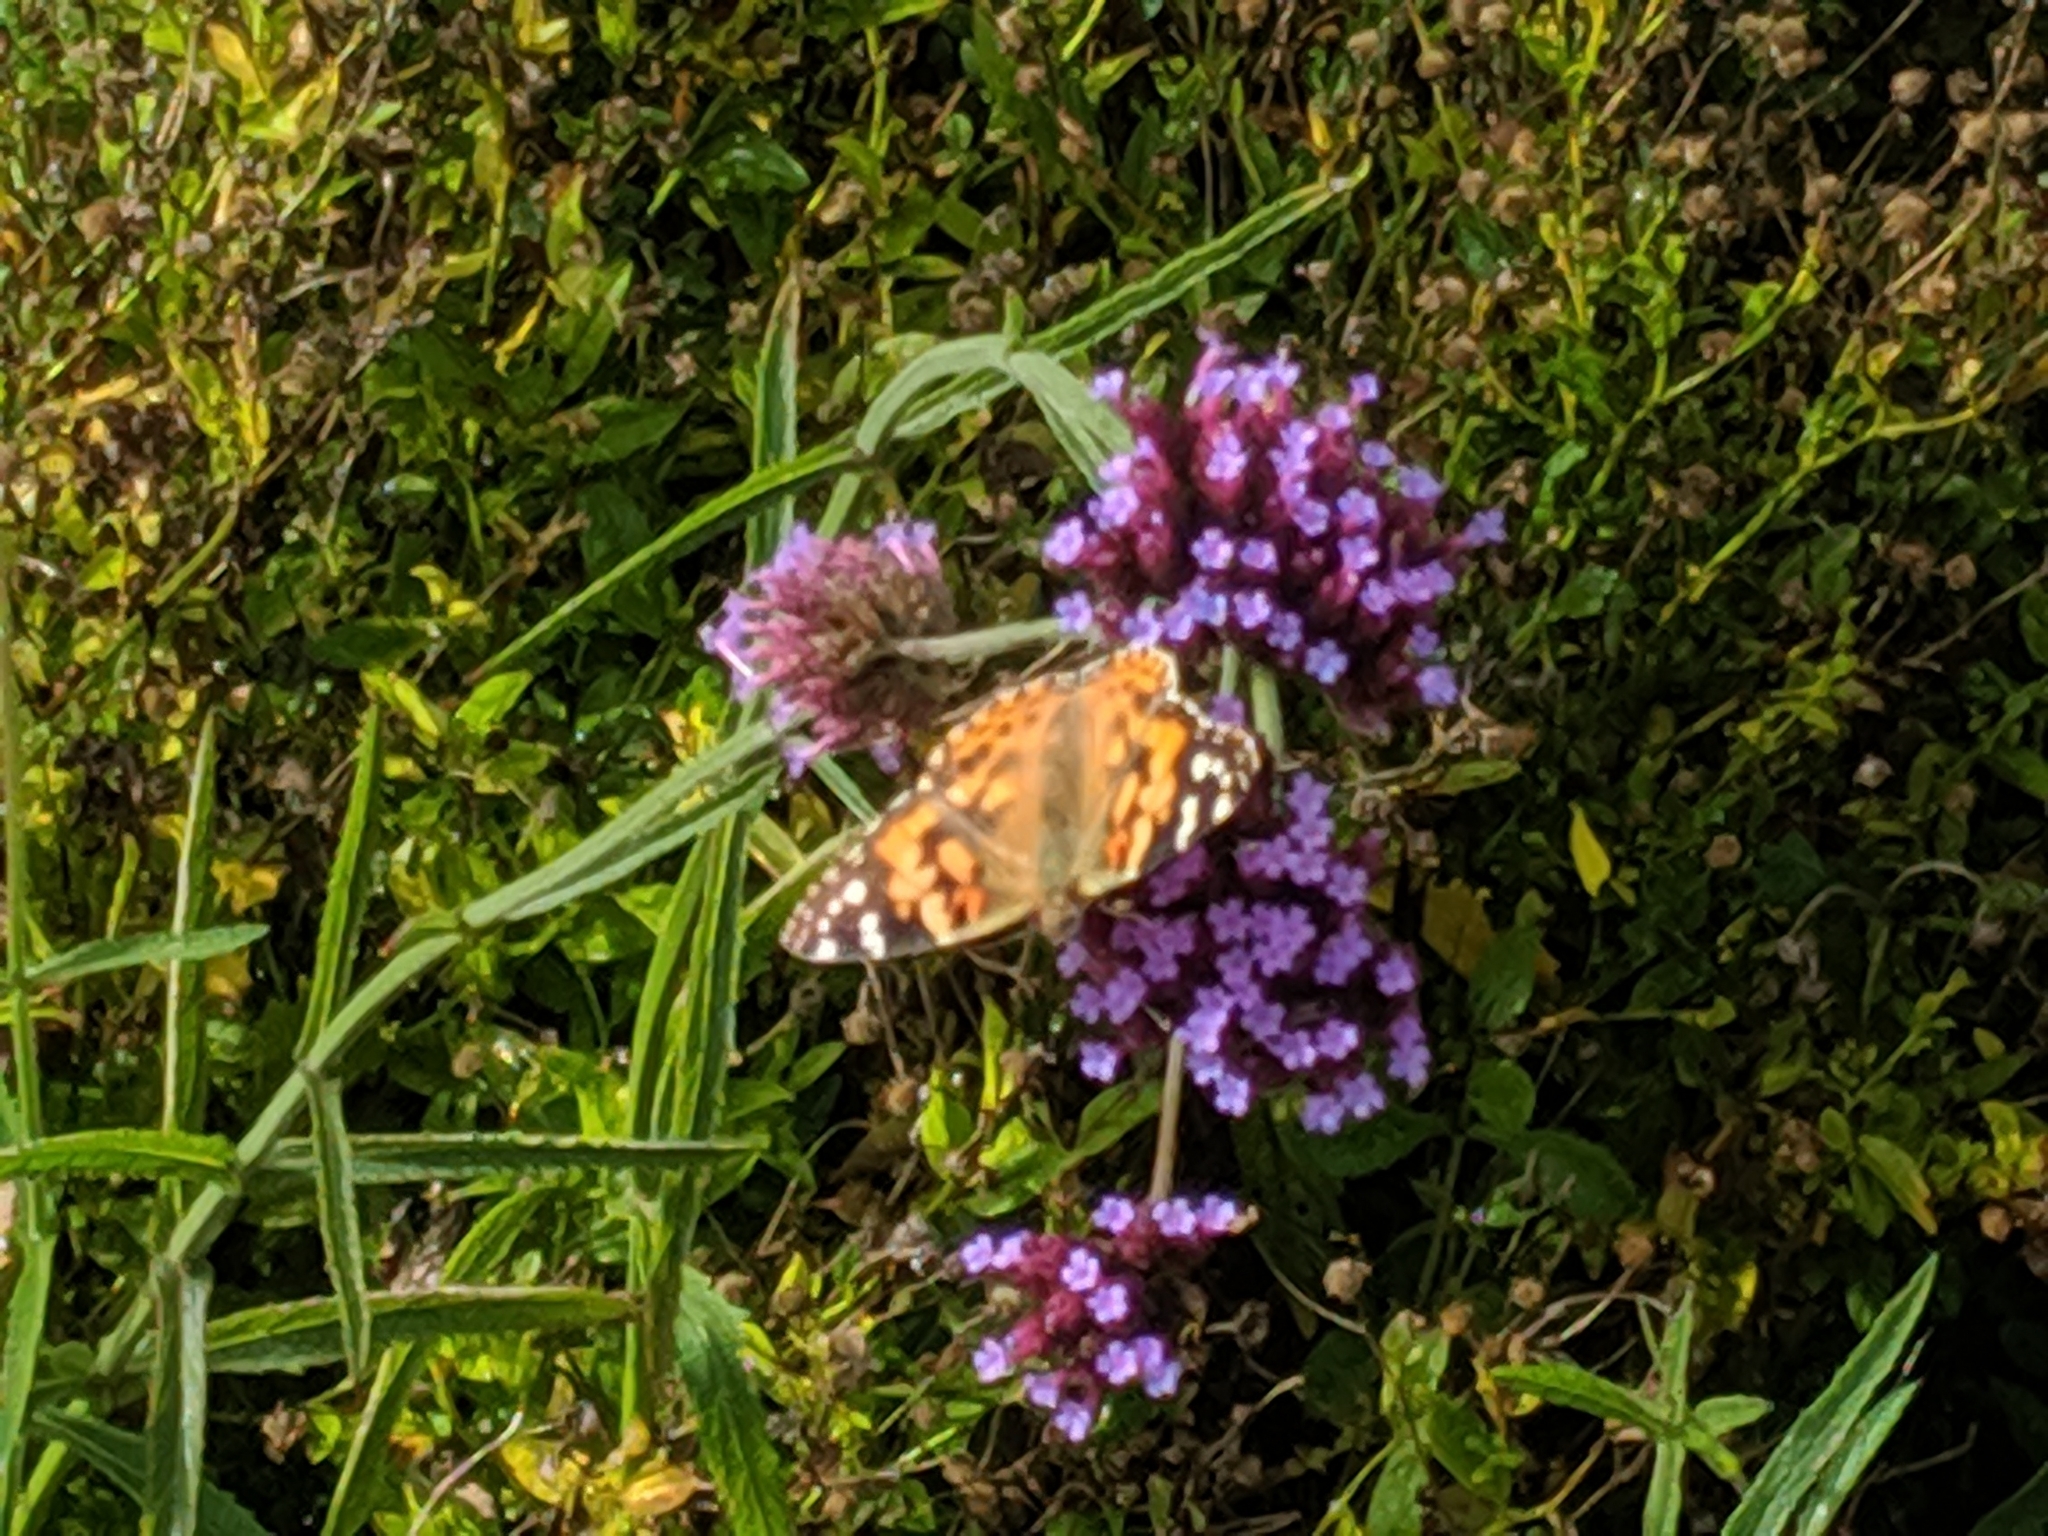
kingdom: Animalia
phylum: Arthropoda
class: Insecta
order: Lepidoptera
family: Nymphalidae
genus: Vanessa
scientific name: Vanessa cardui
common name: Painted lady
